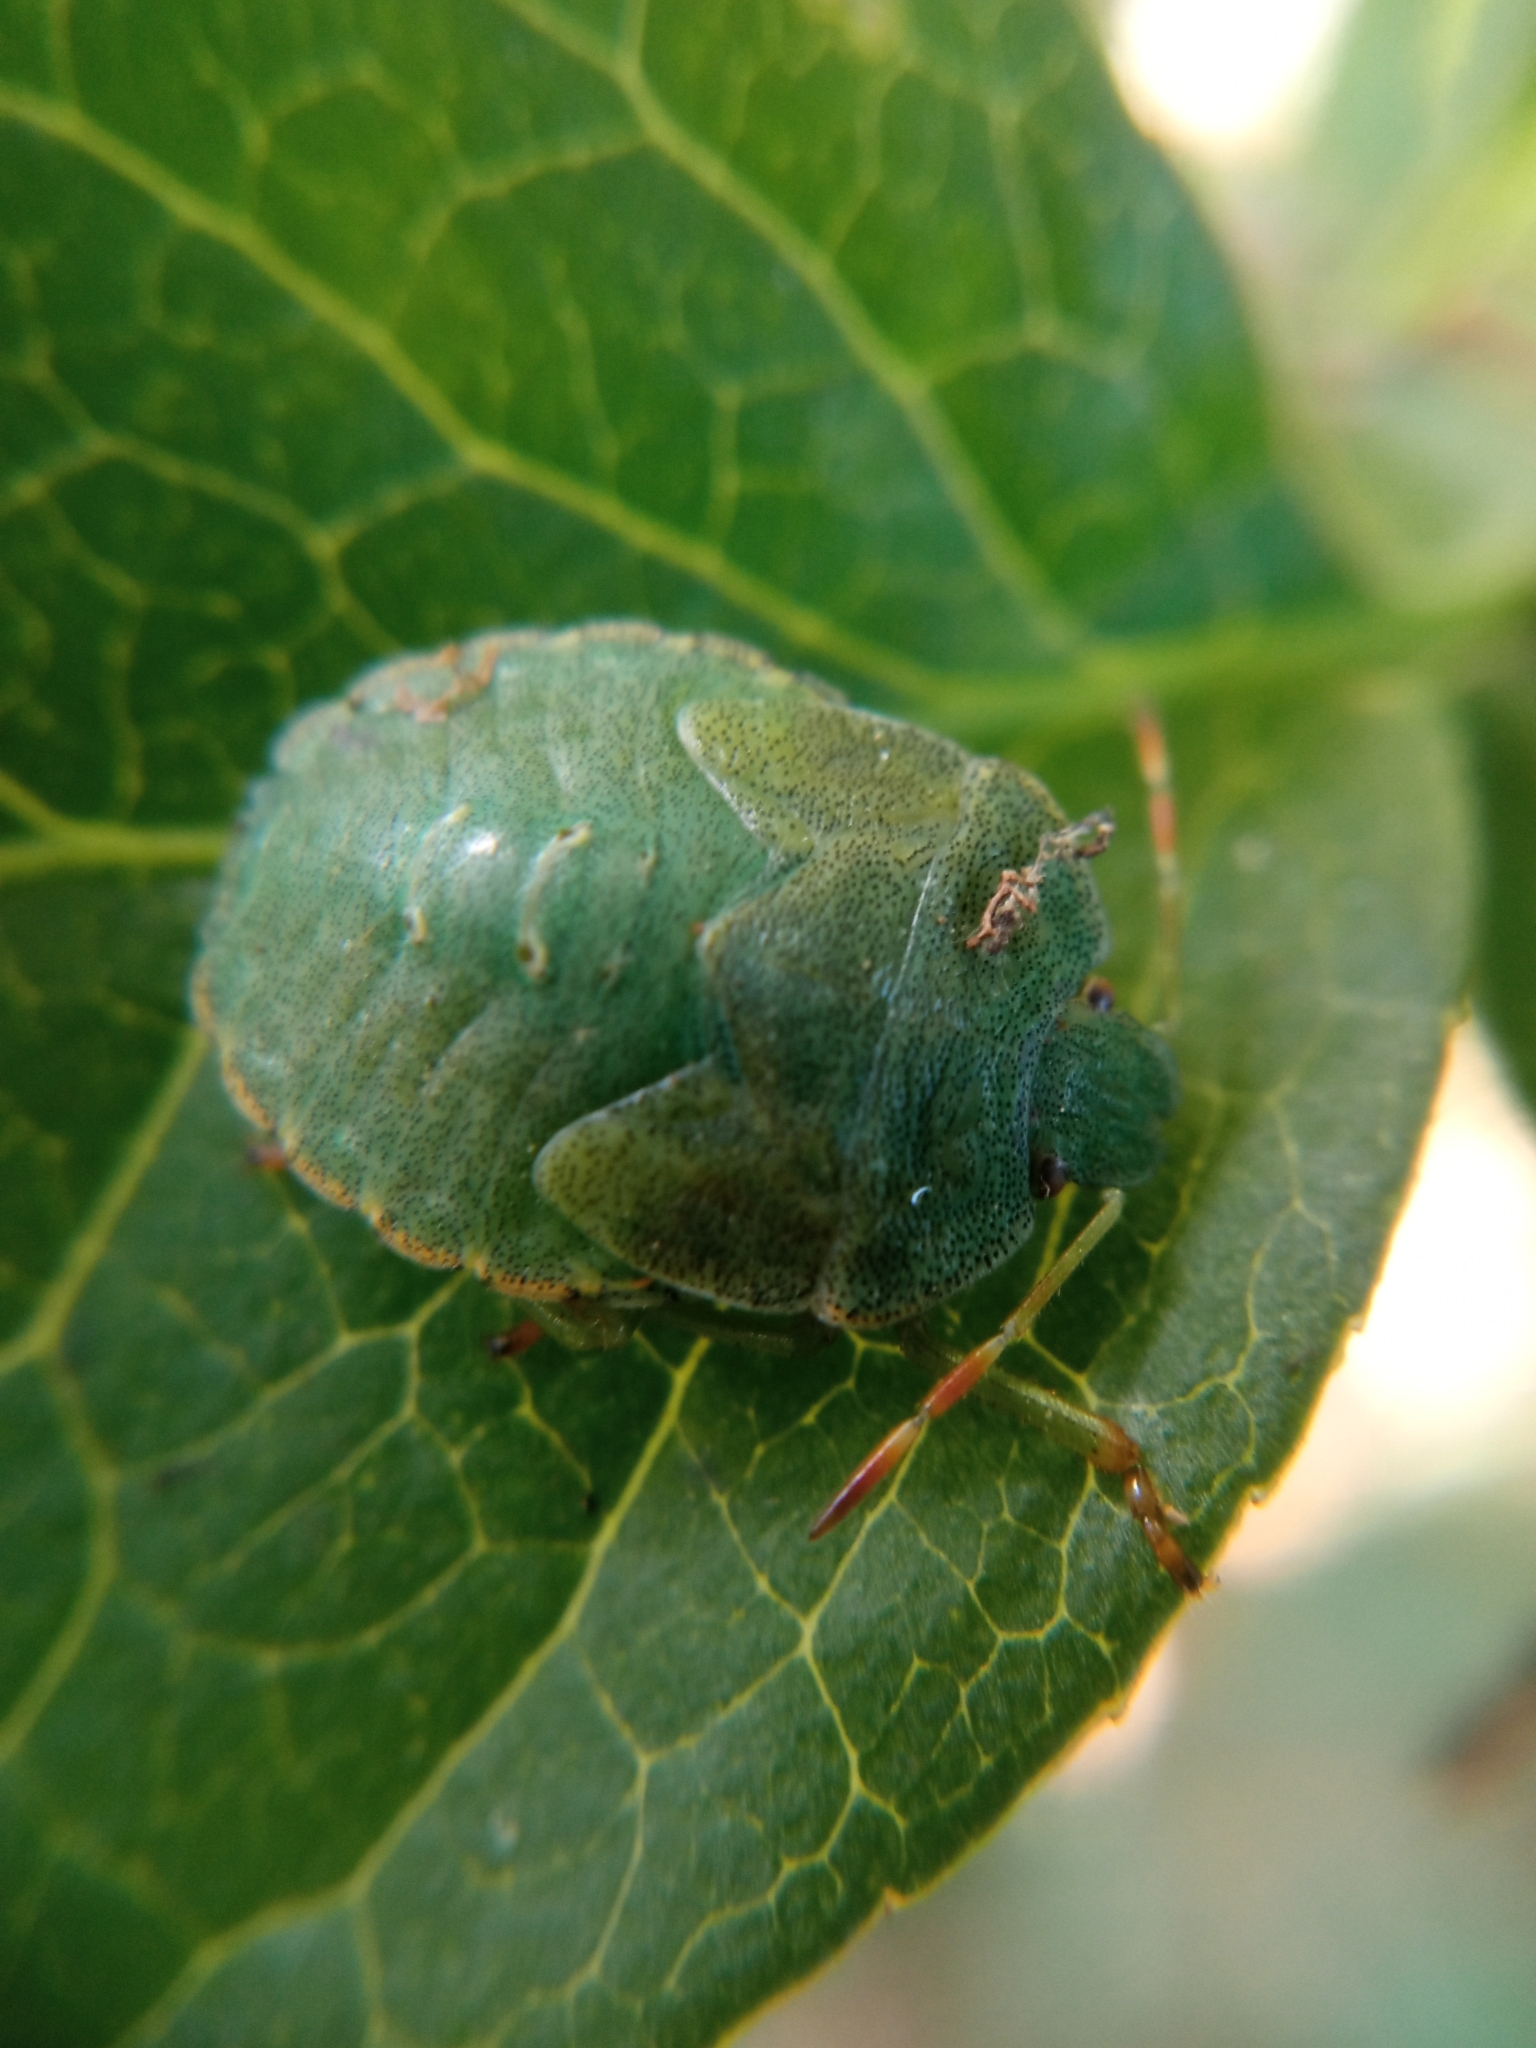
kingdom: Animalia
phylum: Arthropoda
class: Insecta
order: Hemiptera
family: Pentatomidae
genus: Palomena
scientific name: Palomena prasina
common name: Green shieldbug
